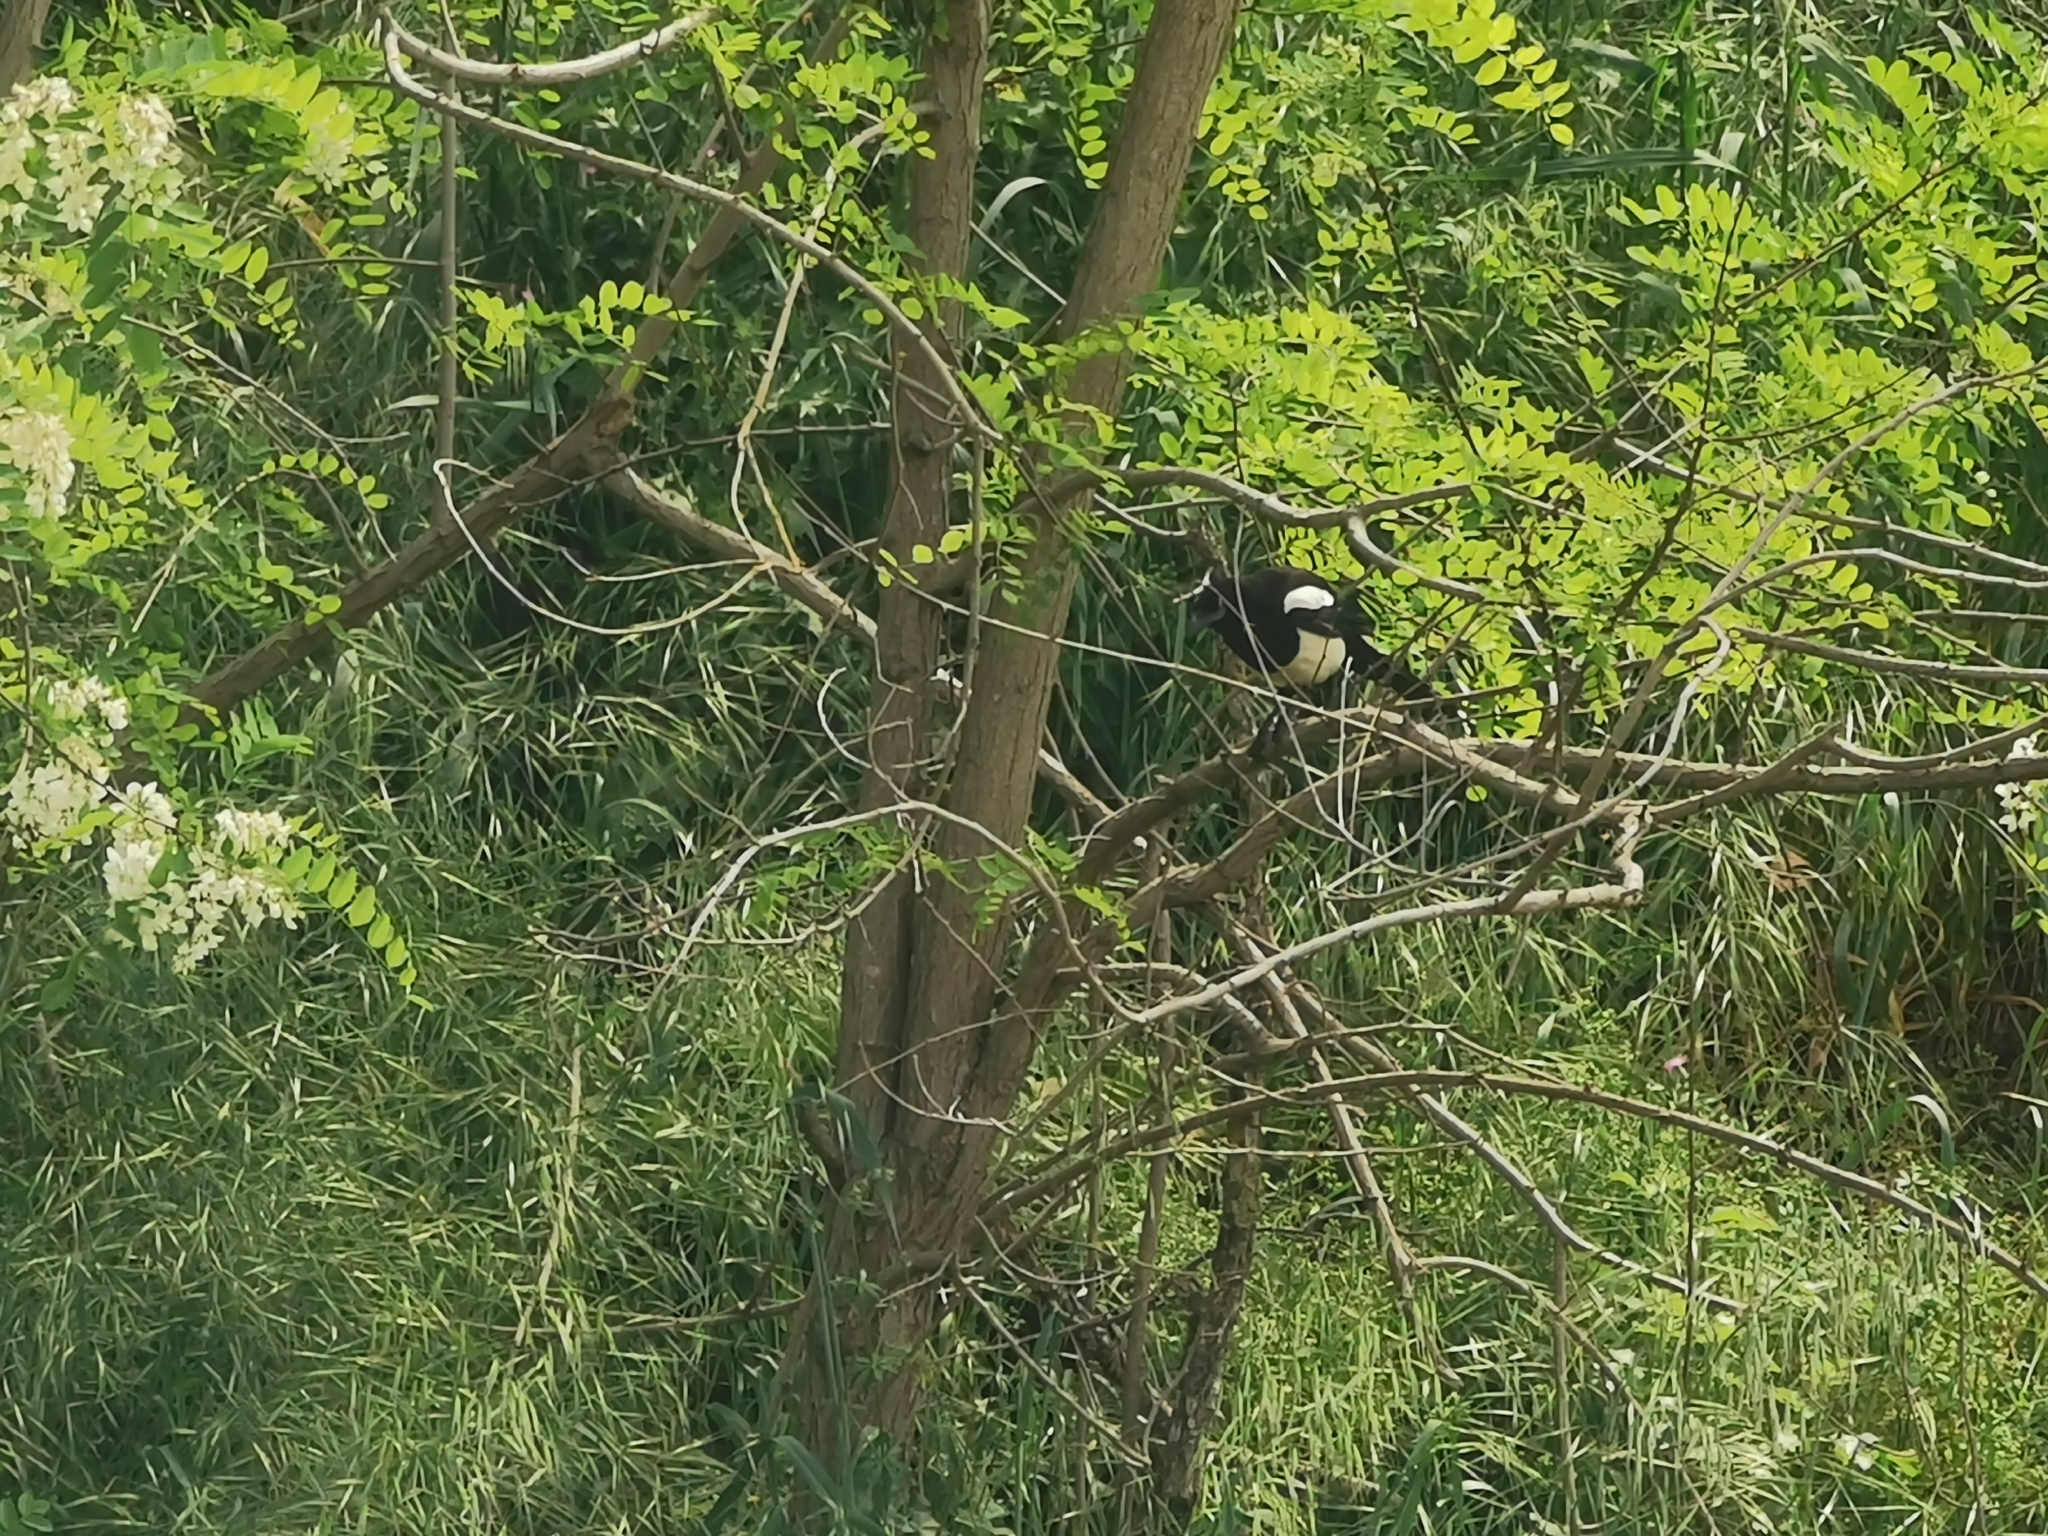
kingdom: Animalia
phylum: Chordata
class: Aves
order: Passeriformes
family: Corvidae
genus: Pica
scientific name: Pica pica
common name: Eurasian magpie
